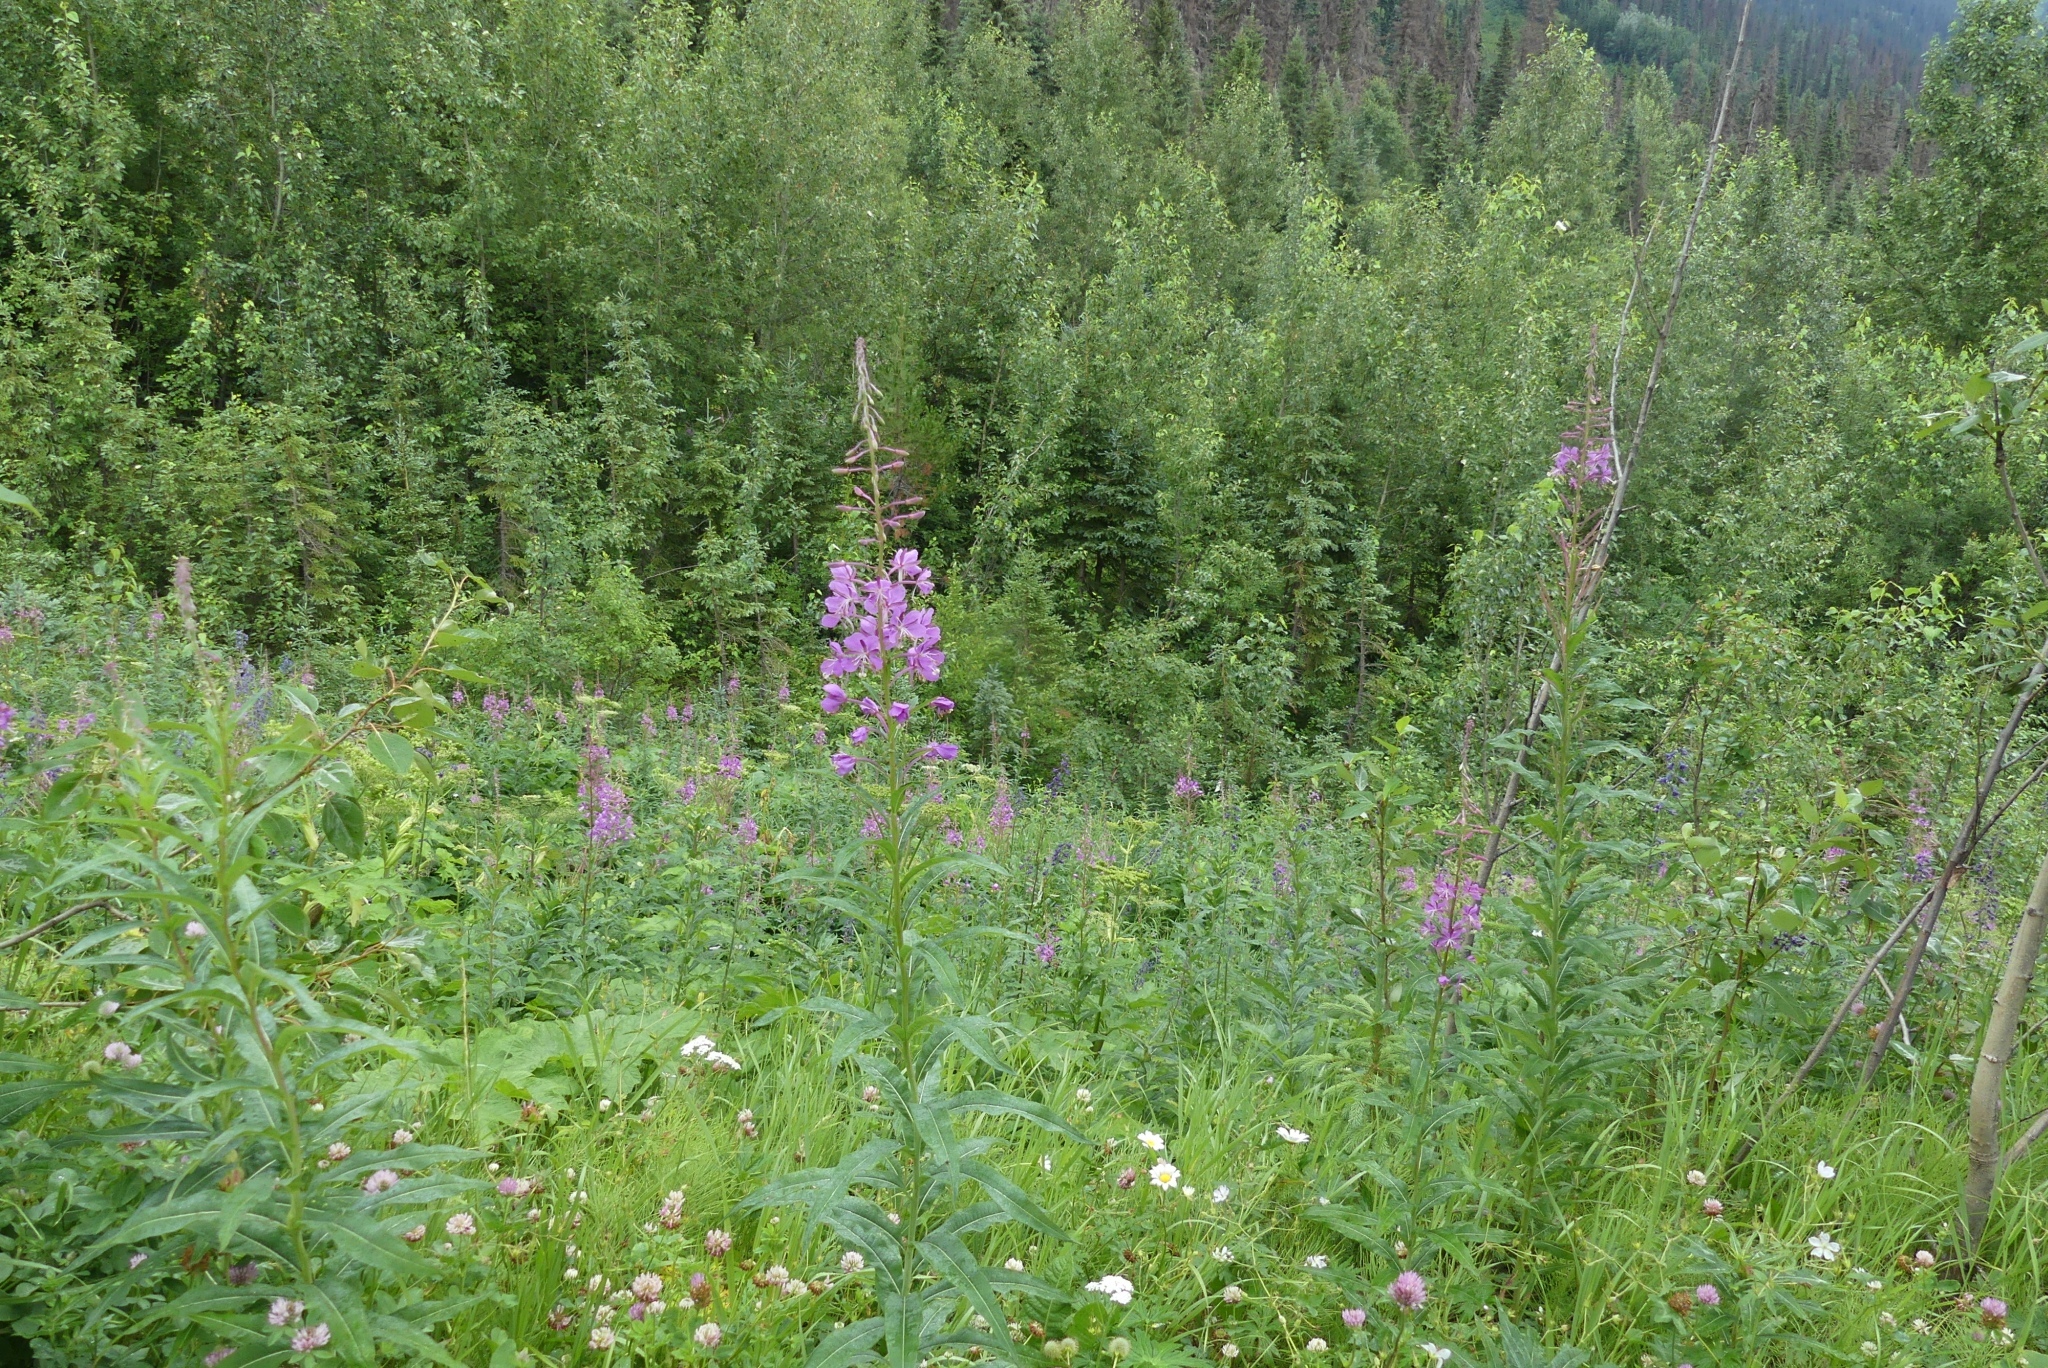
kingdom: Plantae
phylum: Tracheophyta
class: Magnoliopsida
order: Myrtales
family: Onagraceae
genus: Chamaenerion
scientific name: Chamaenerion angustifolium
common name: Fireweed
